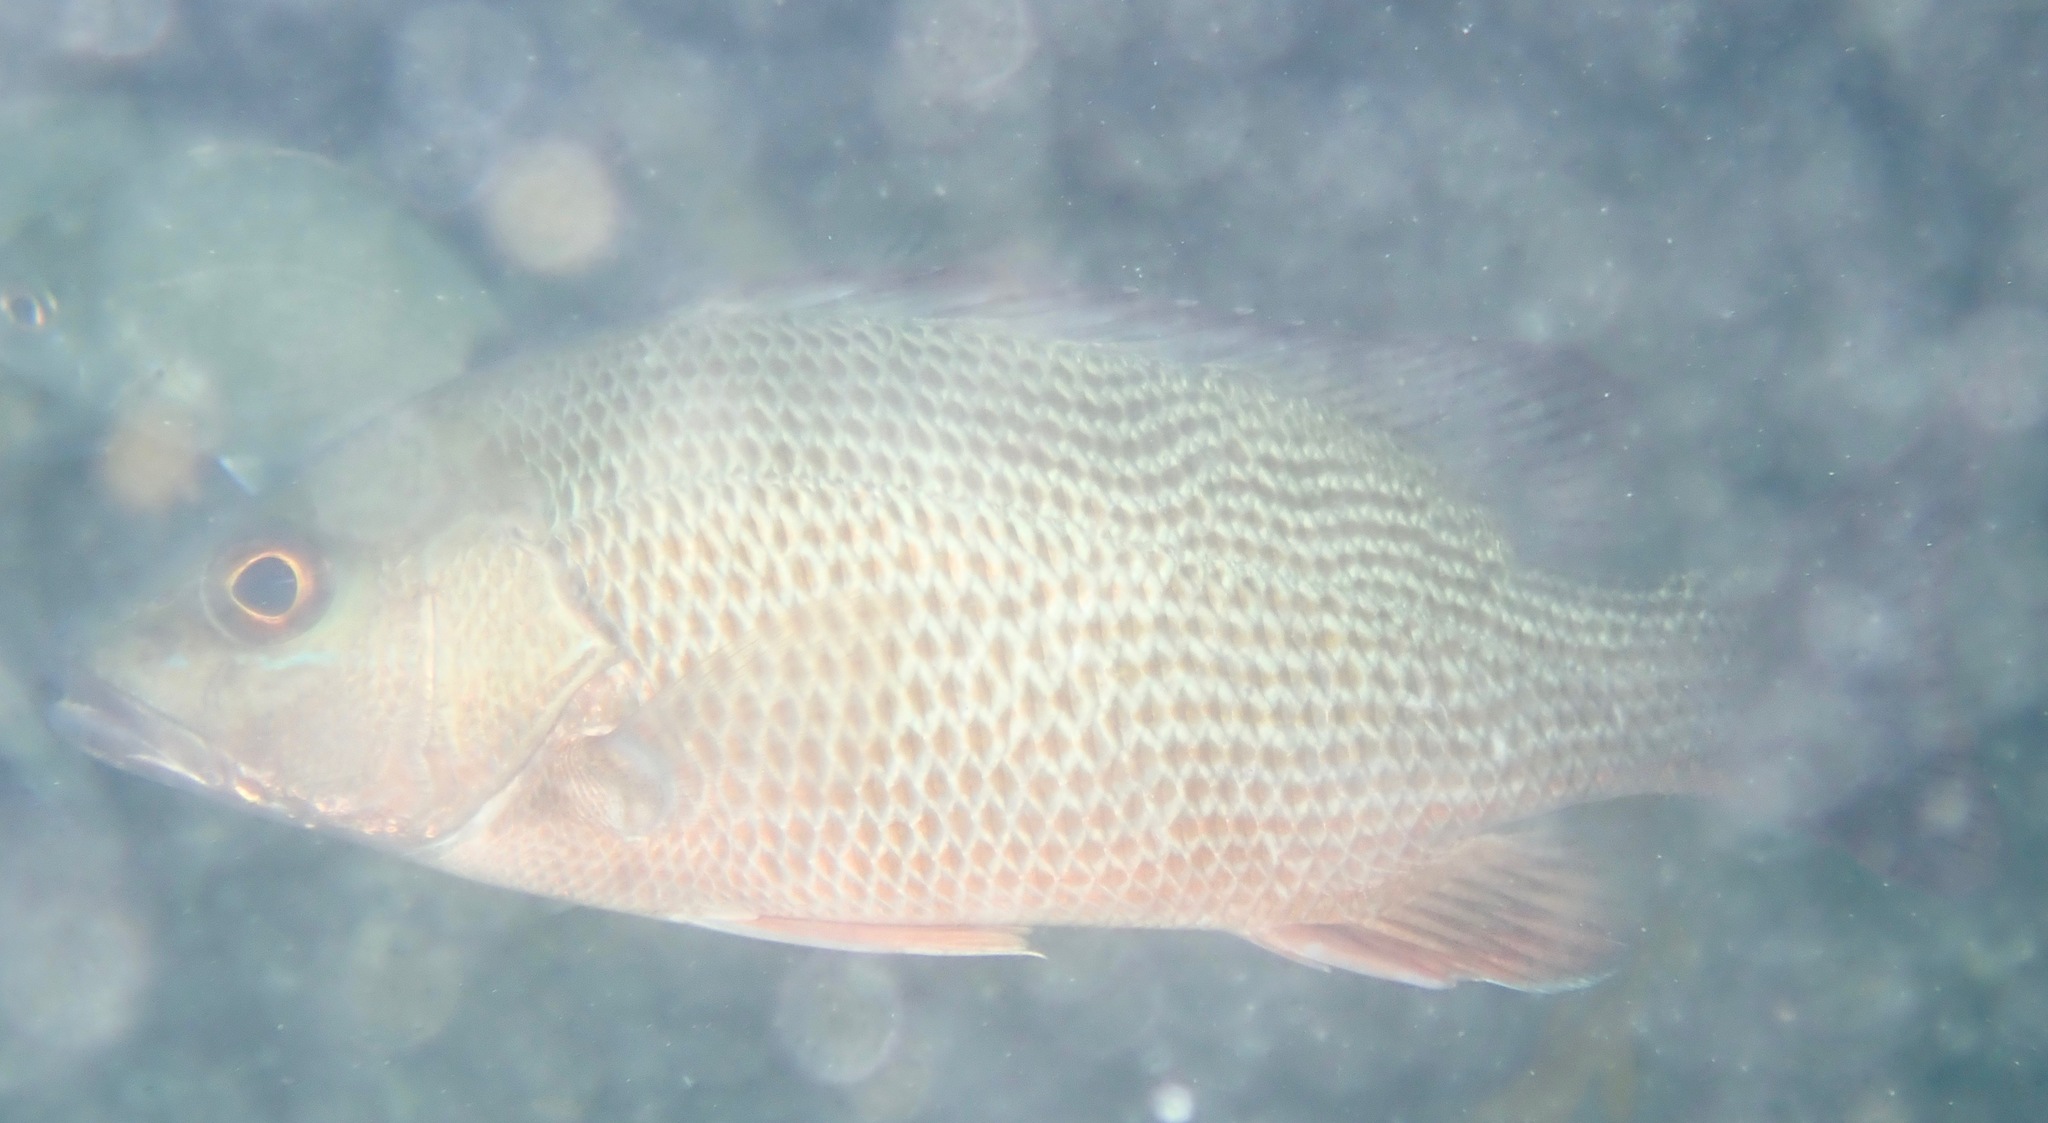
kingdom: Animalia
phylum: Chordata
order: Perciformes
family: Lutjanidae
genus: Lutjanus
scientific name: Lutjanus griseus
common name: Gray snapper
